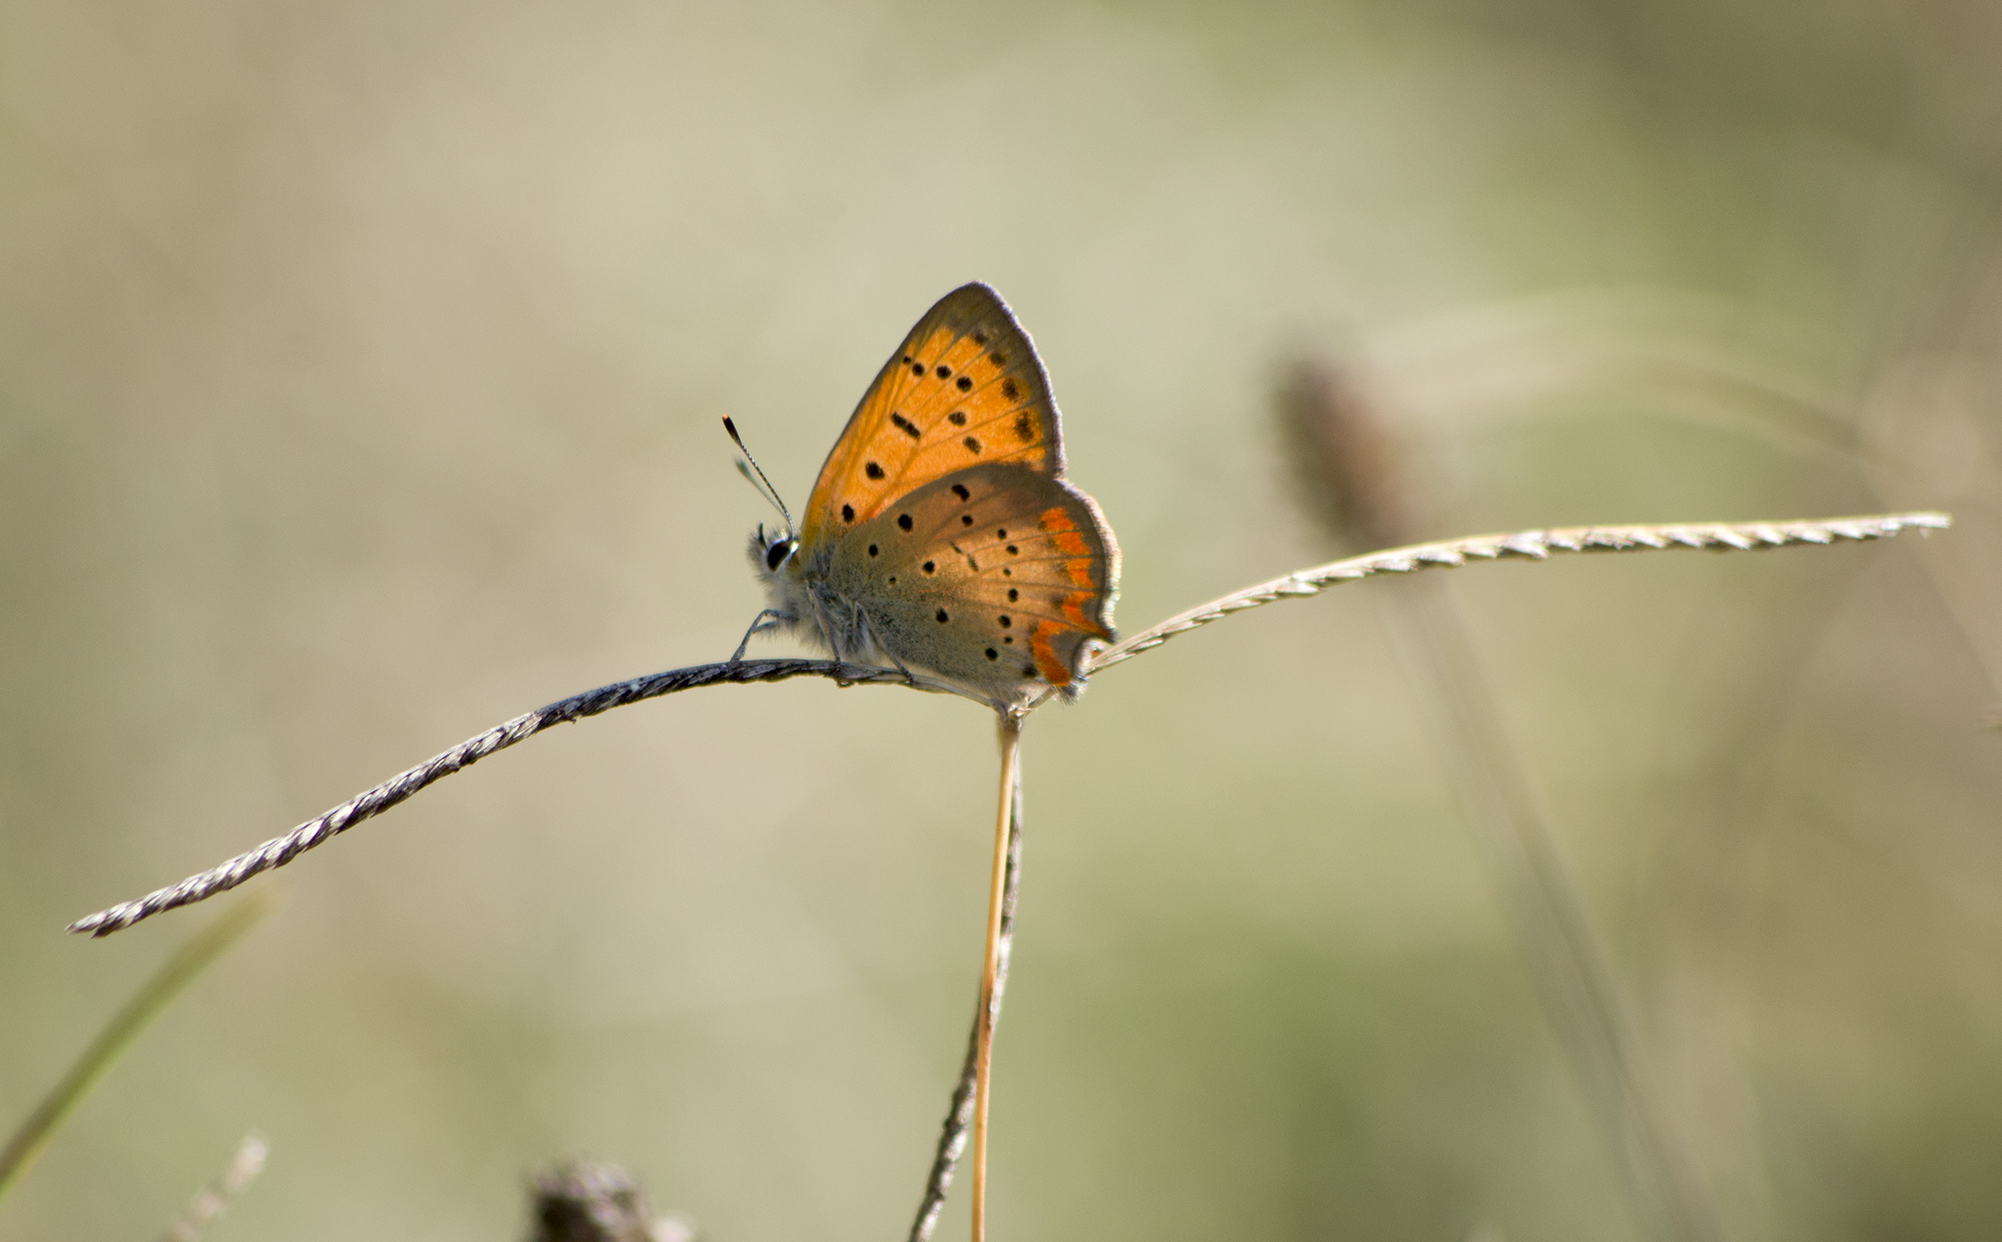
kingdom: Animalia
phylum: Arthropoda
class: Insecta
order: Lepidoptera
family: Lycaenidae
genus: Polyommatus
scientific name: Polyommatus ottomanus
